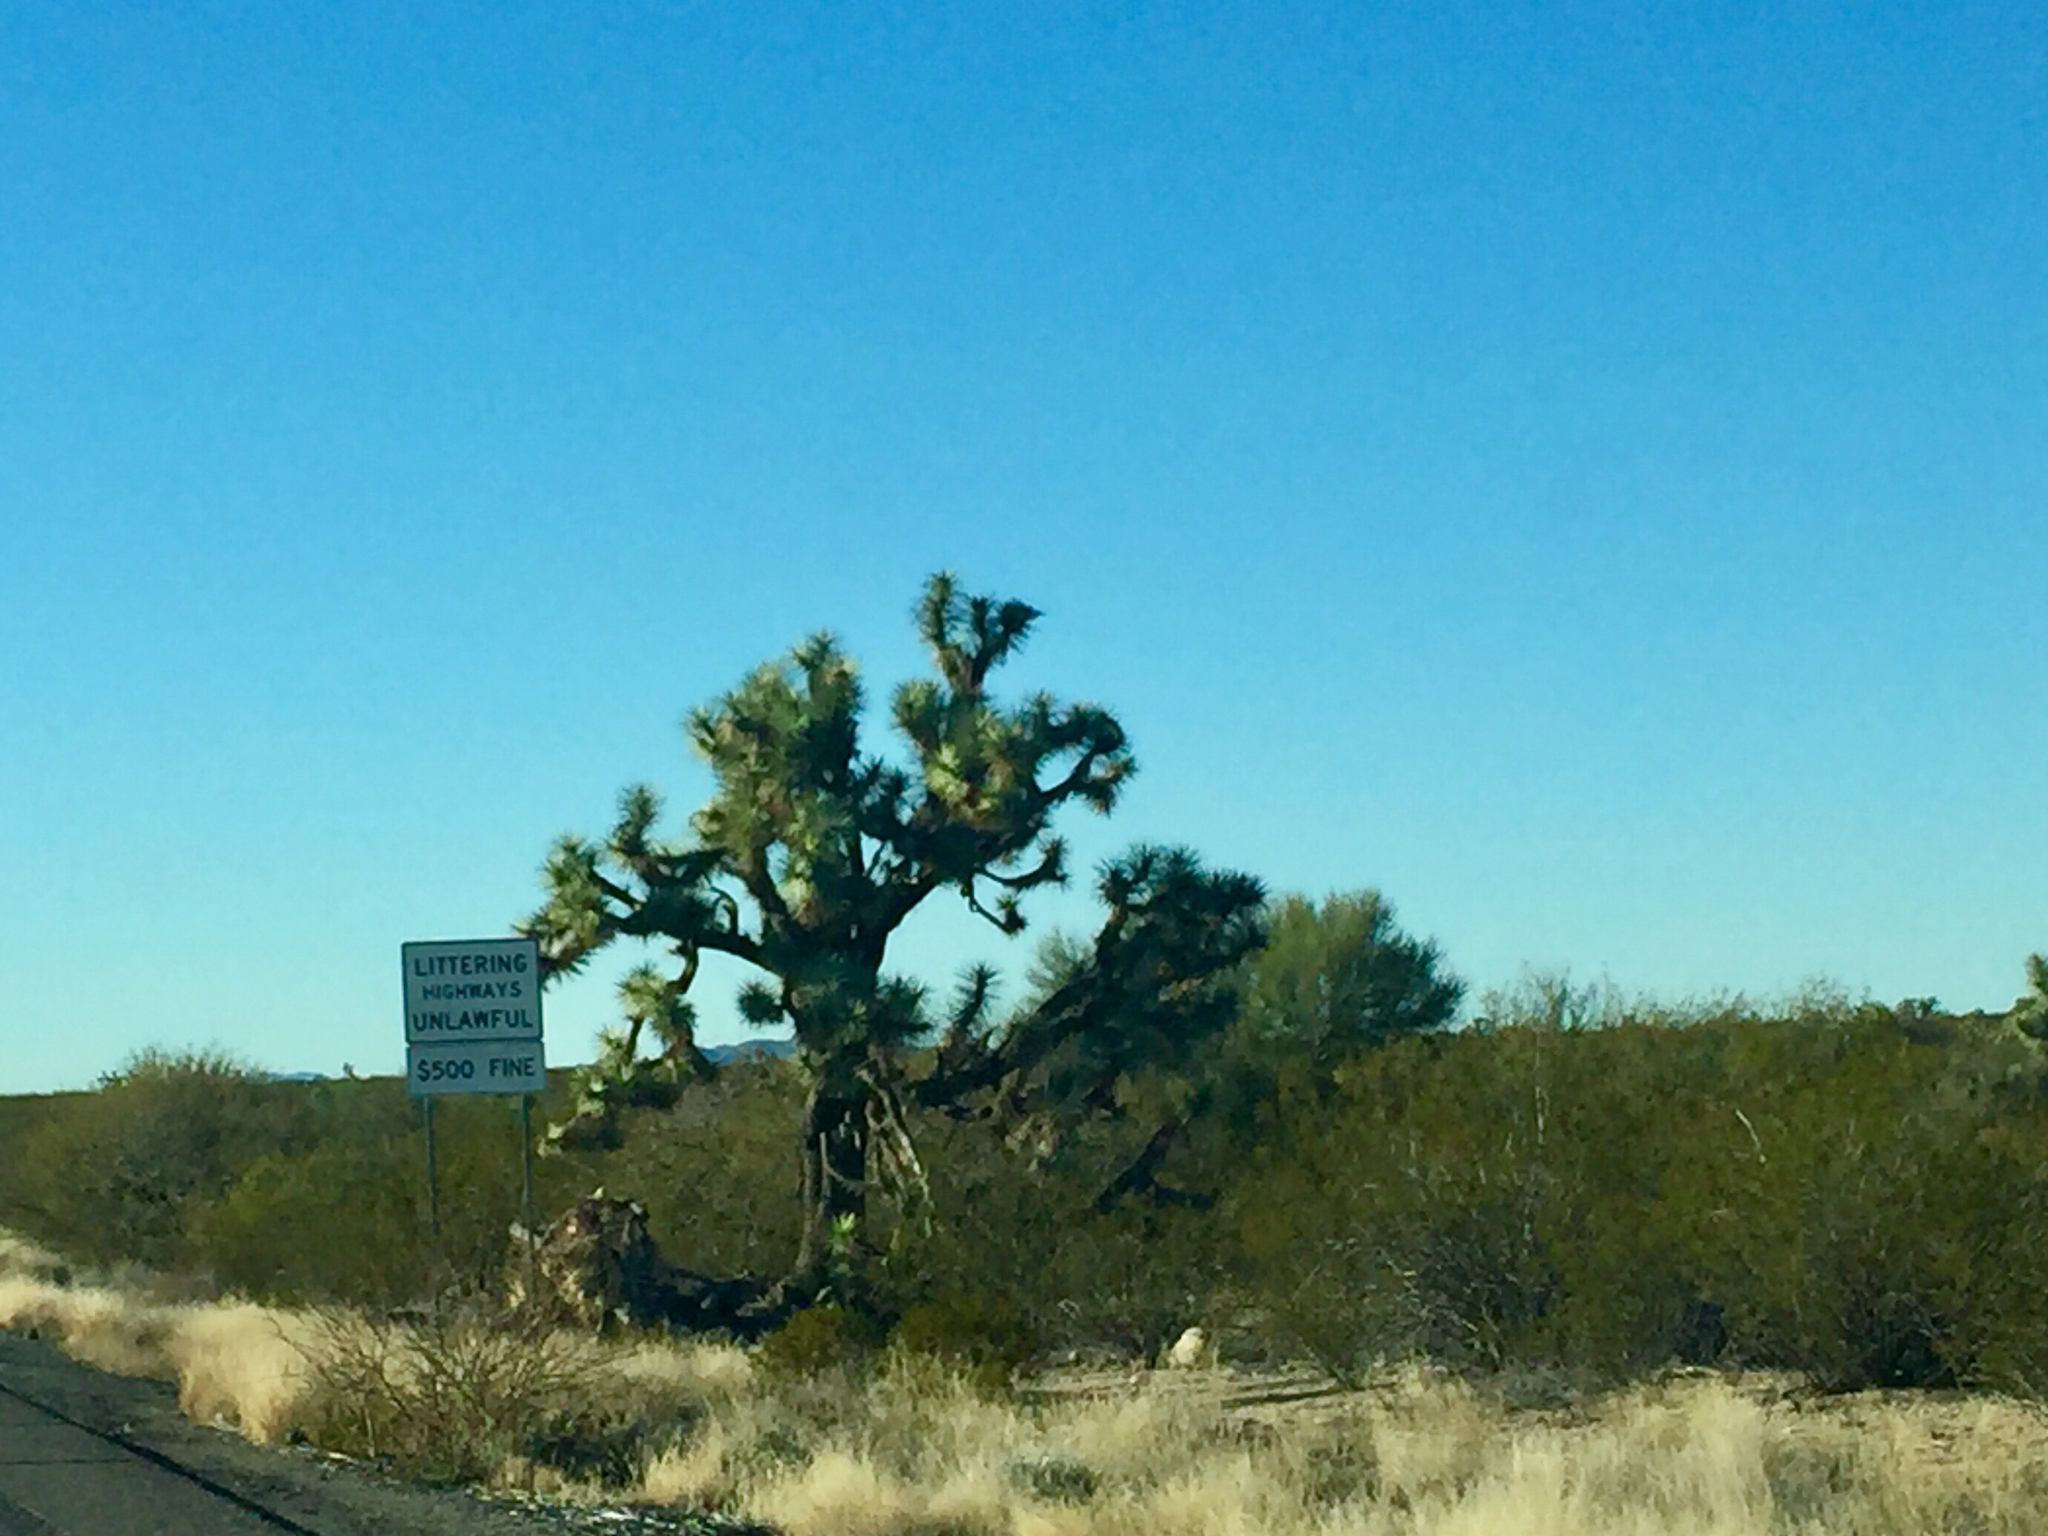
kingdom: Plantae
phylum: Tracheophyta
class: Liliopsida
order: Asparagales
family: Asparagaceae
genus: Yucca
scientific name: Yucca brevifolia
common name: Joshua tree
